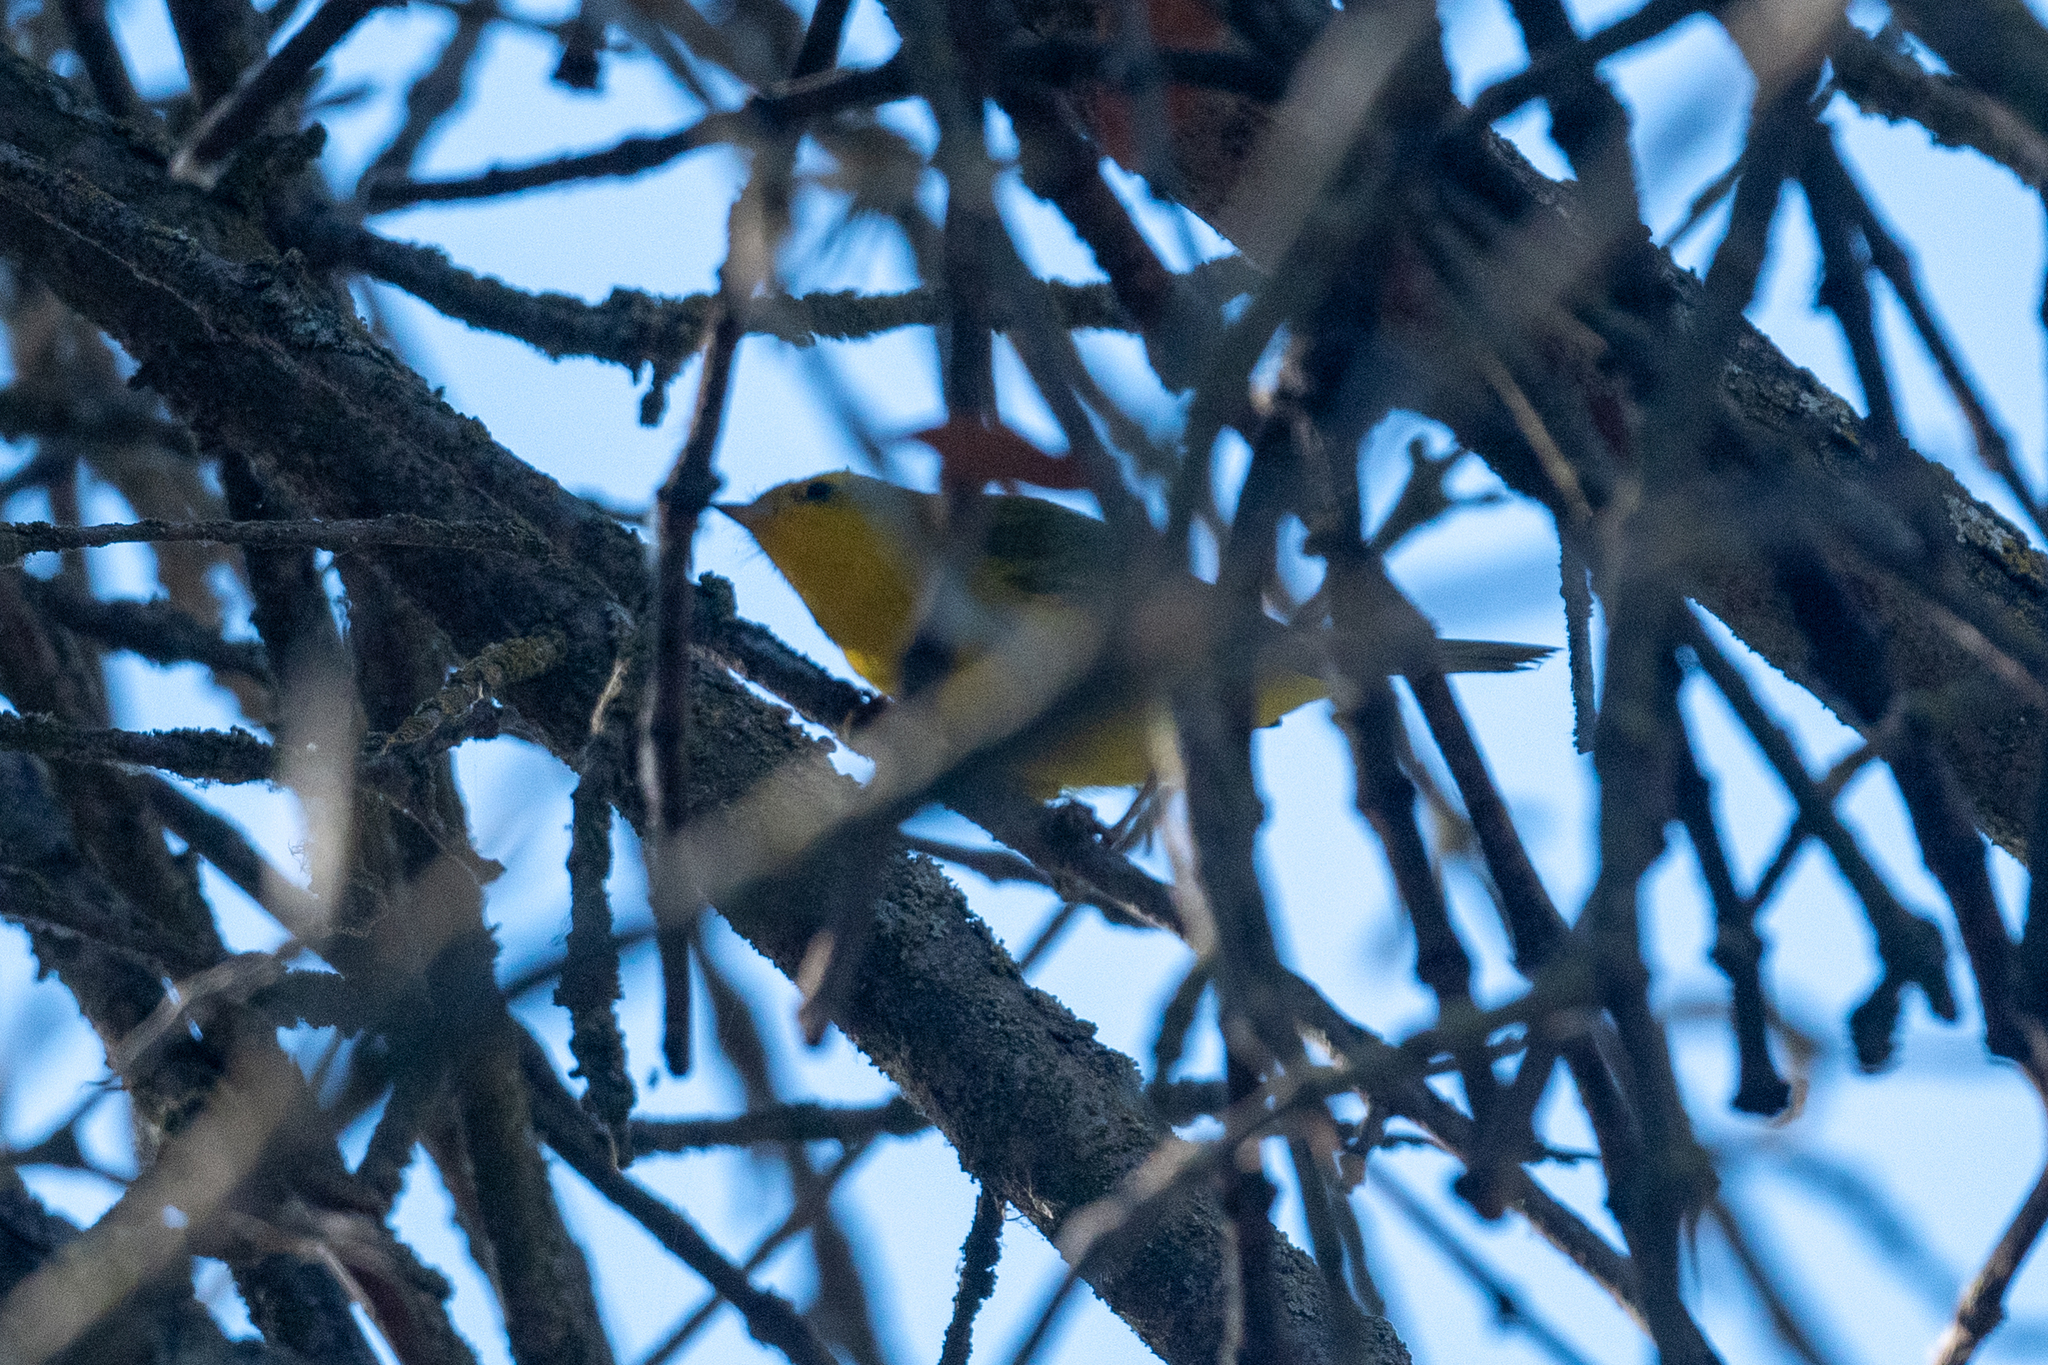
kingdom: Animalia
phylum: Chordata
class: Aves
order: Passeriformes
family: Parulidae
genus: Cardellina
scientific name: Cardellina pusilla
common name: Wilson's warbler
